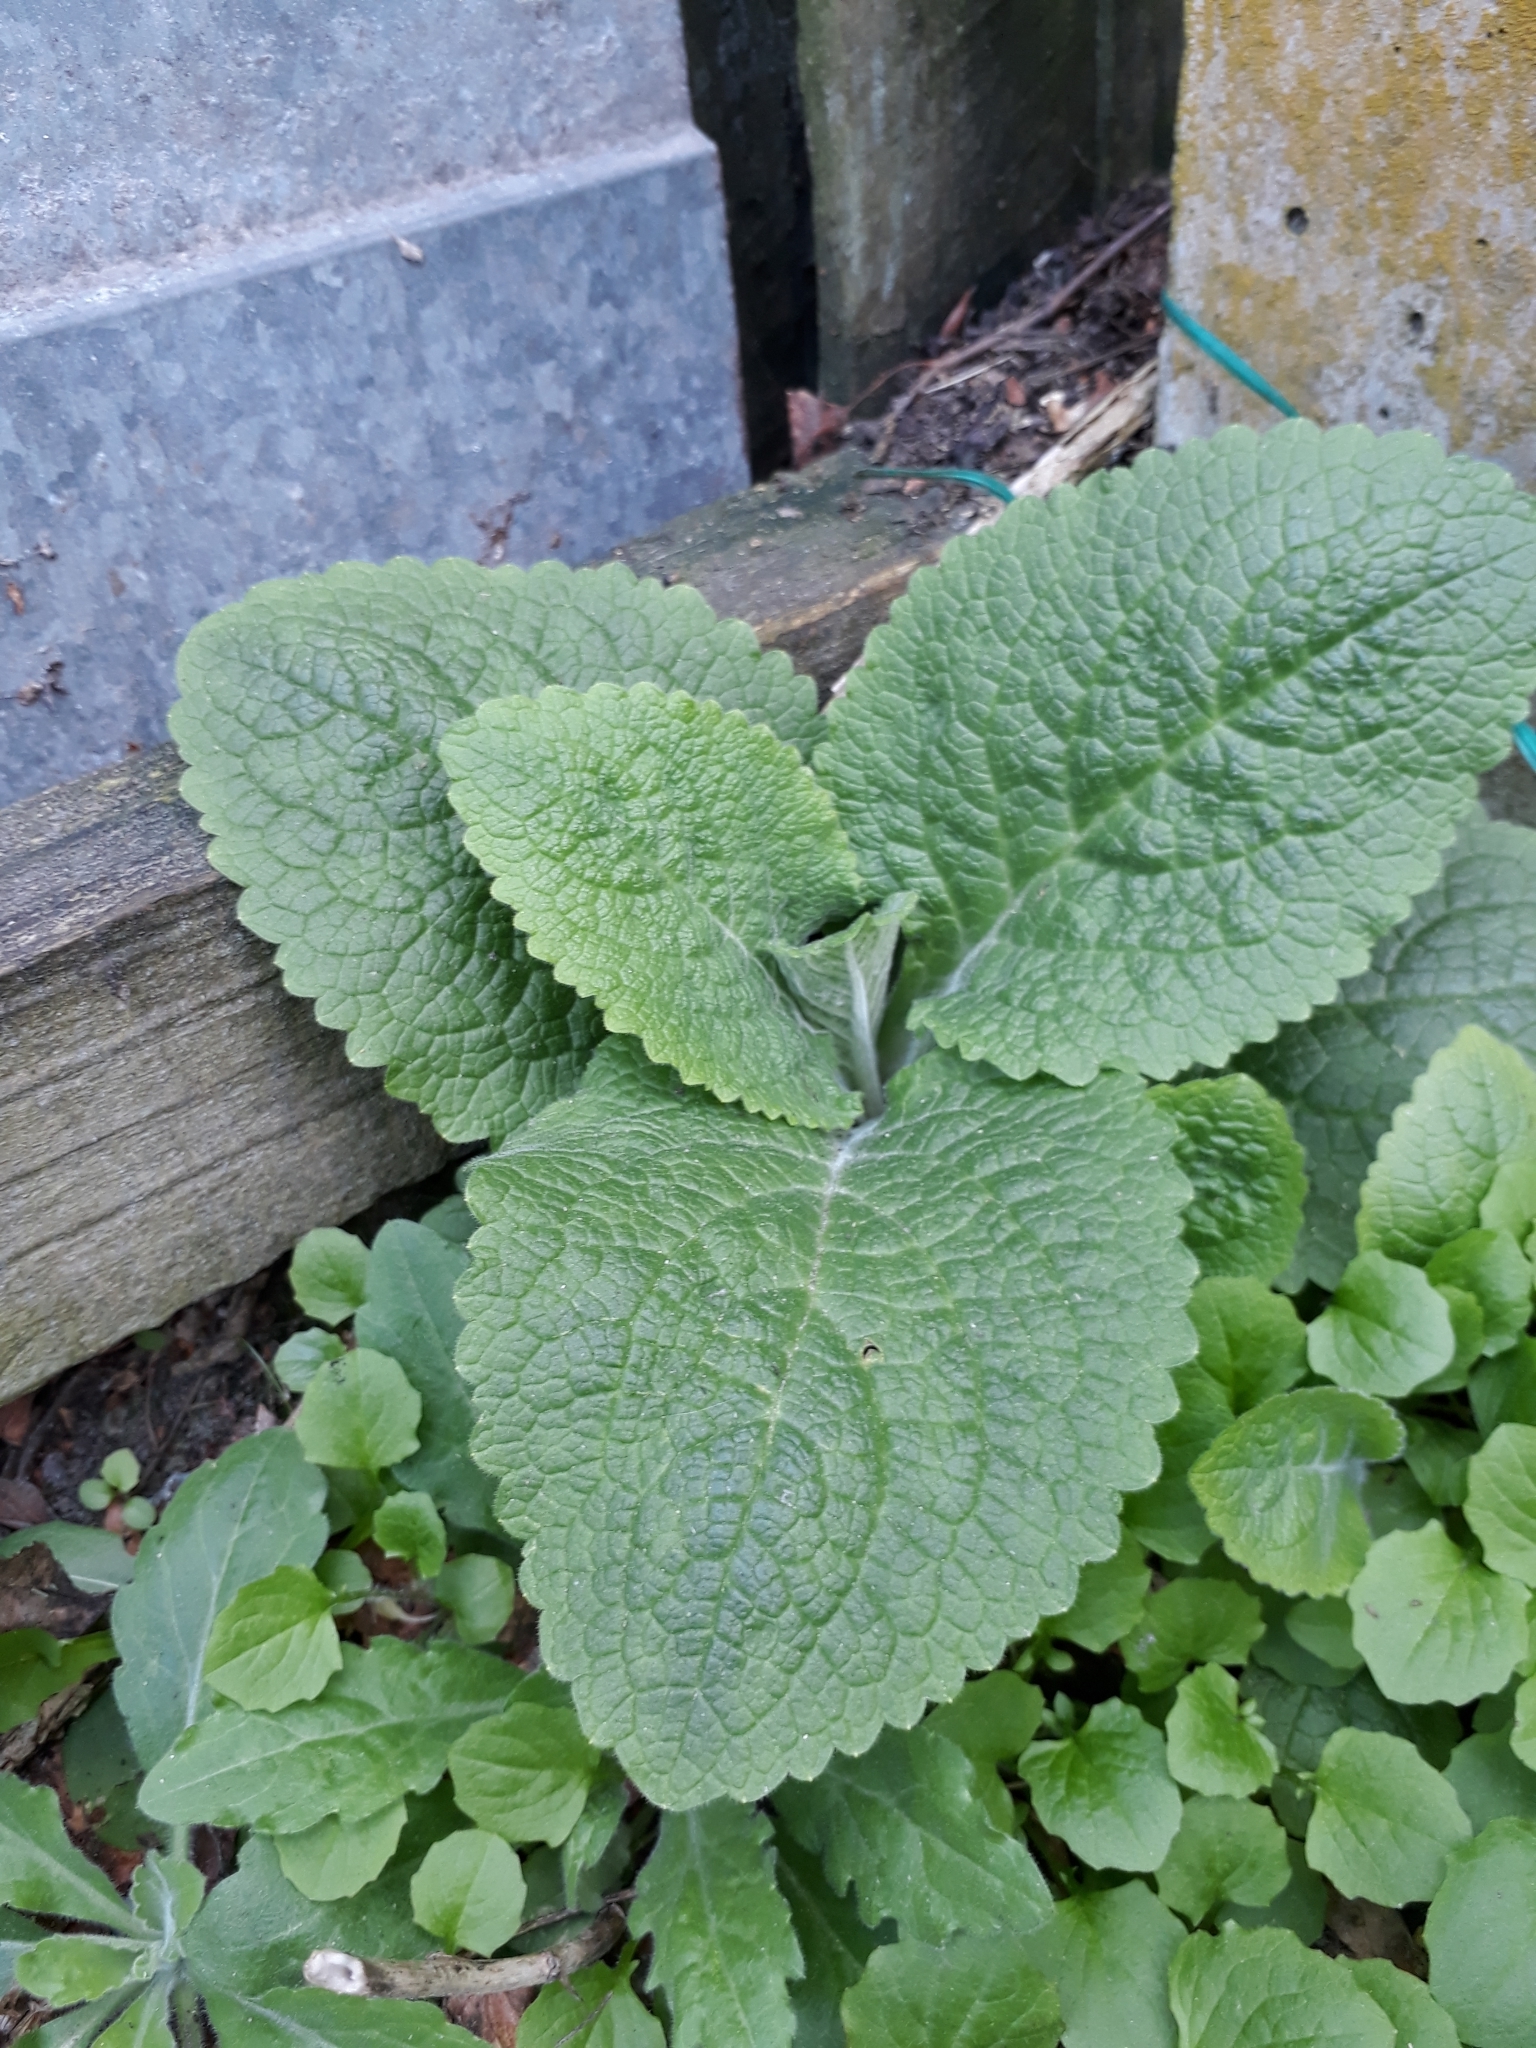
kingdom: Plantae
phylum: Tracheophyta
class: Magnoliopsida
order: Lamiales
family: Plantaginaceae
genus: Digitalis
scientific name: Digitalis purpurea
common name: Foxglove
